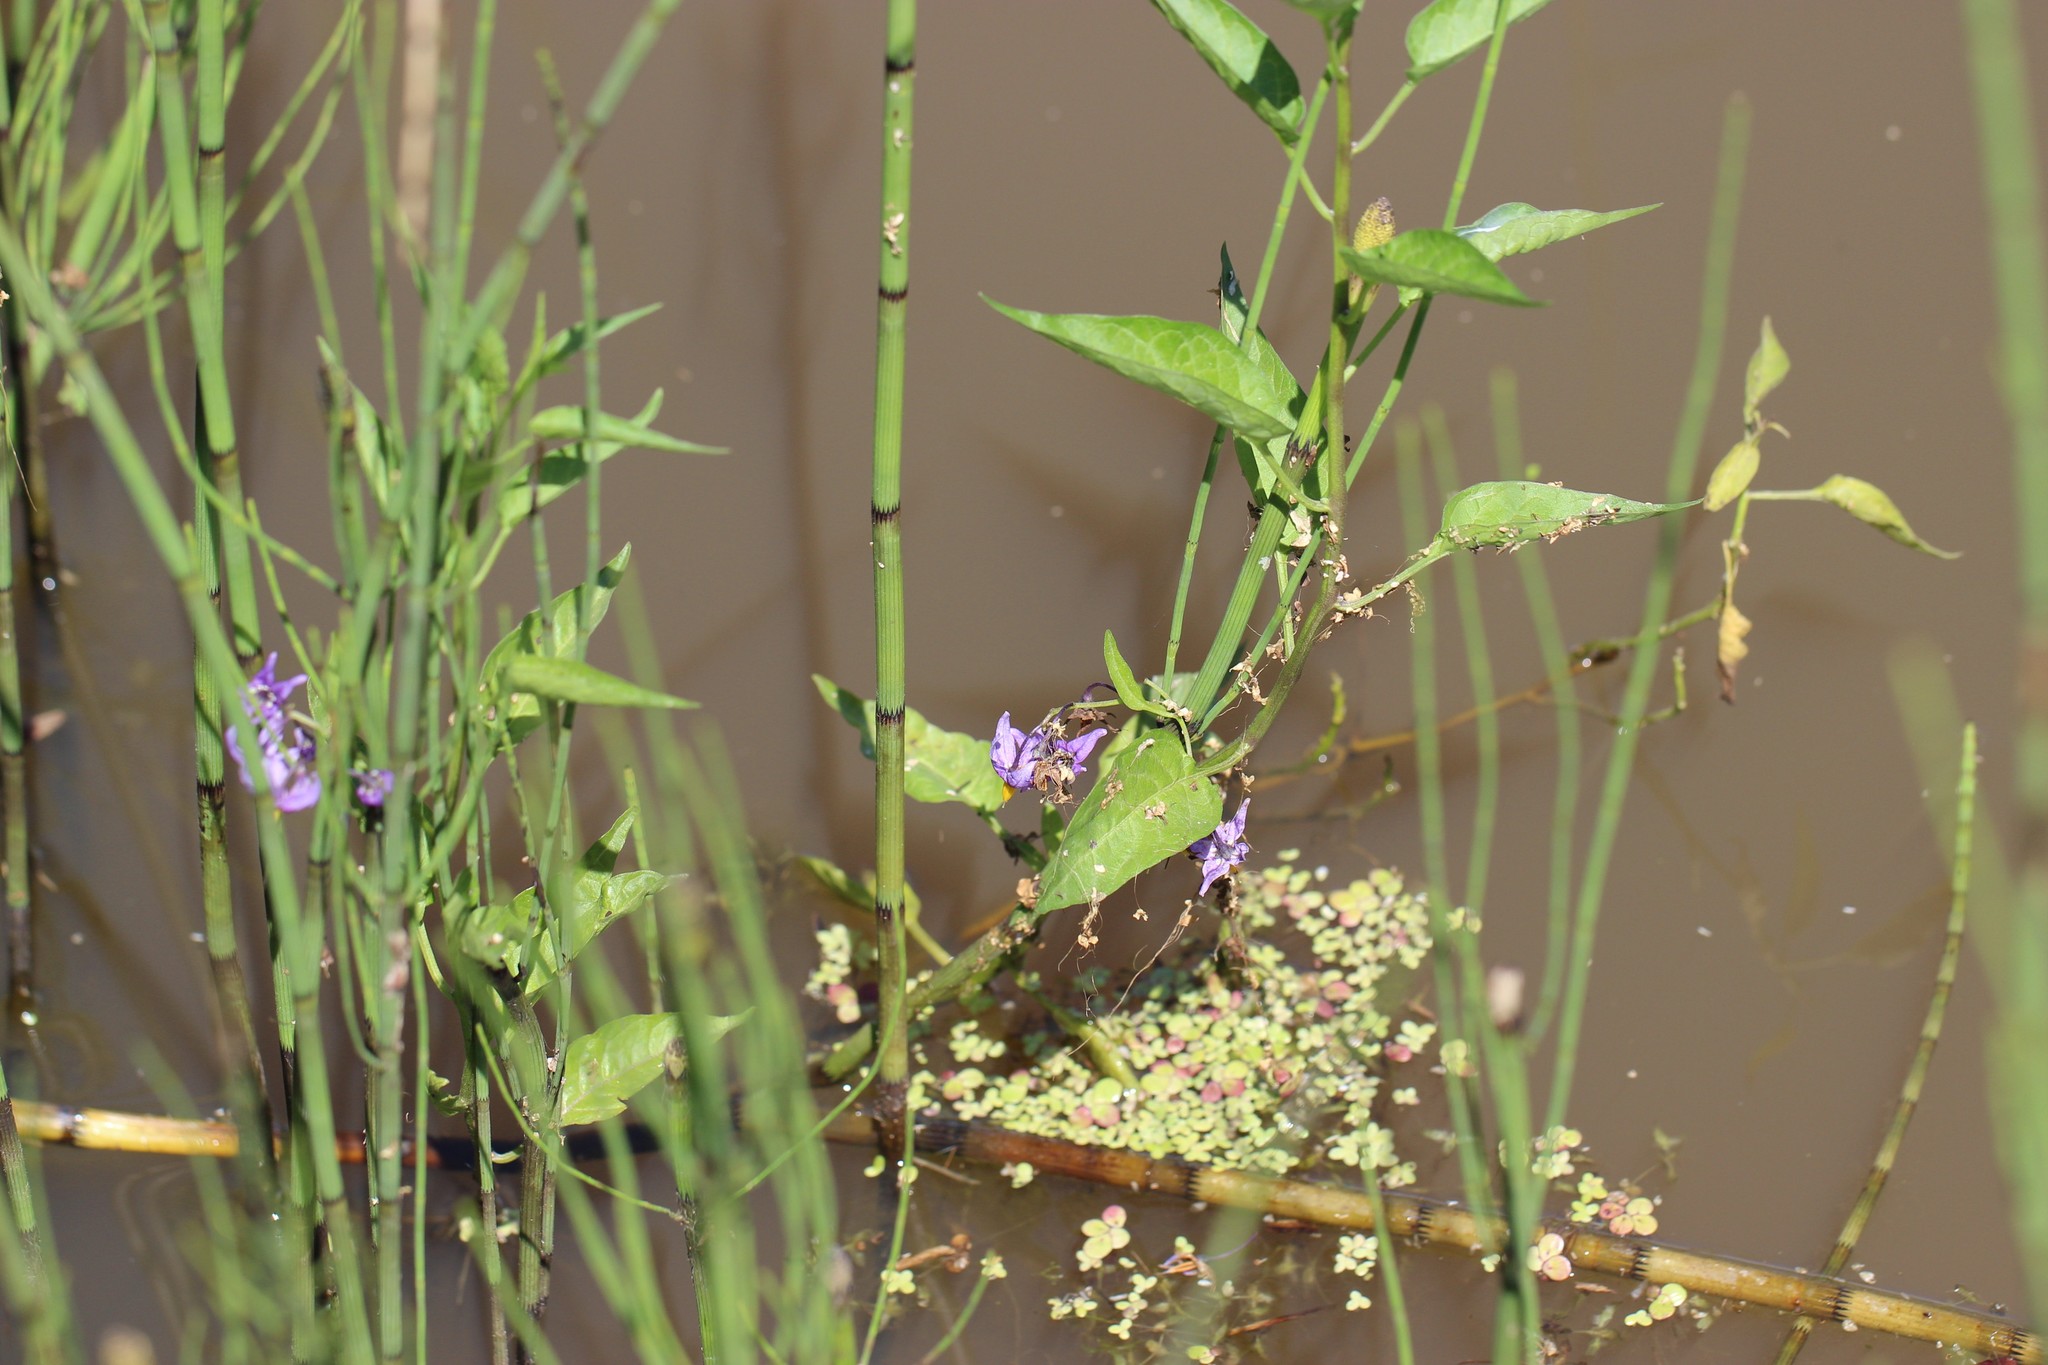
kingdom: Plantae
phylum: Tracheophyta
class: Magnoliopsida
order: Solanales
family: Solanaceae
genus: Solanum
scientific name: Solanum dulcamara
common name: Climbing nightshade
